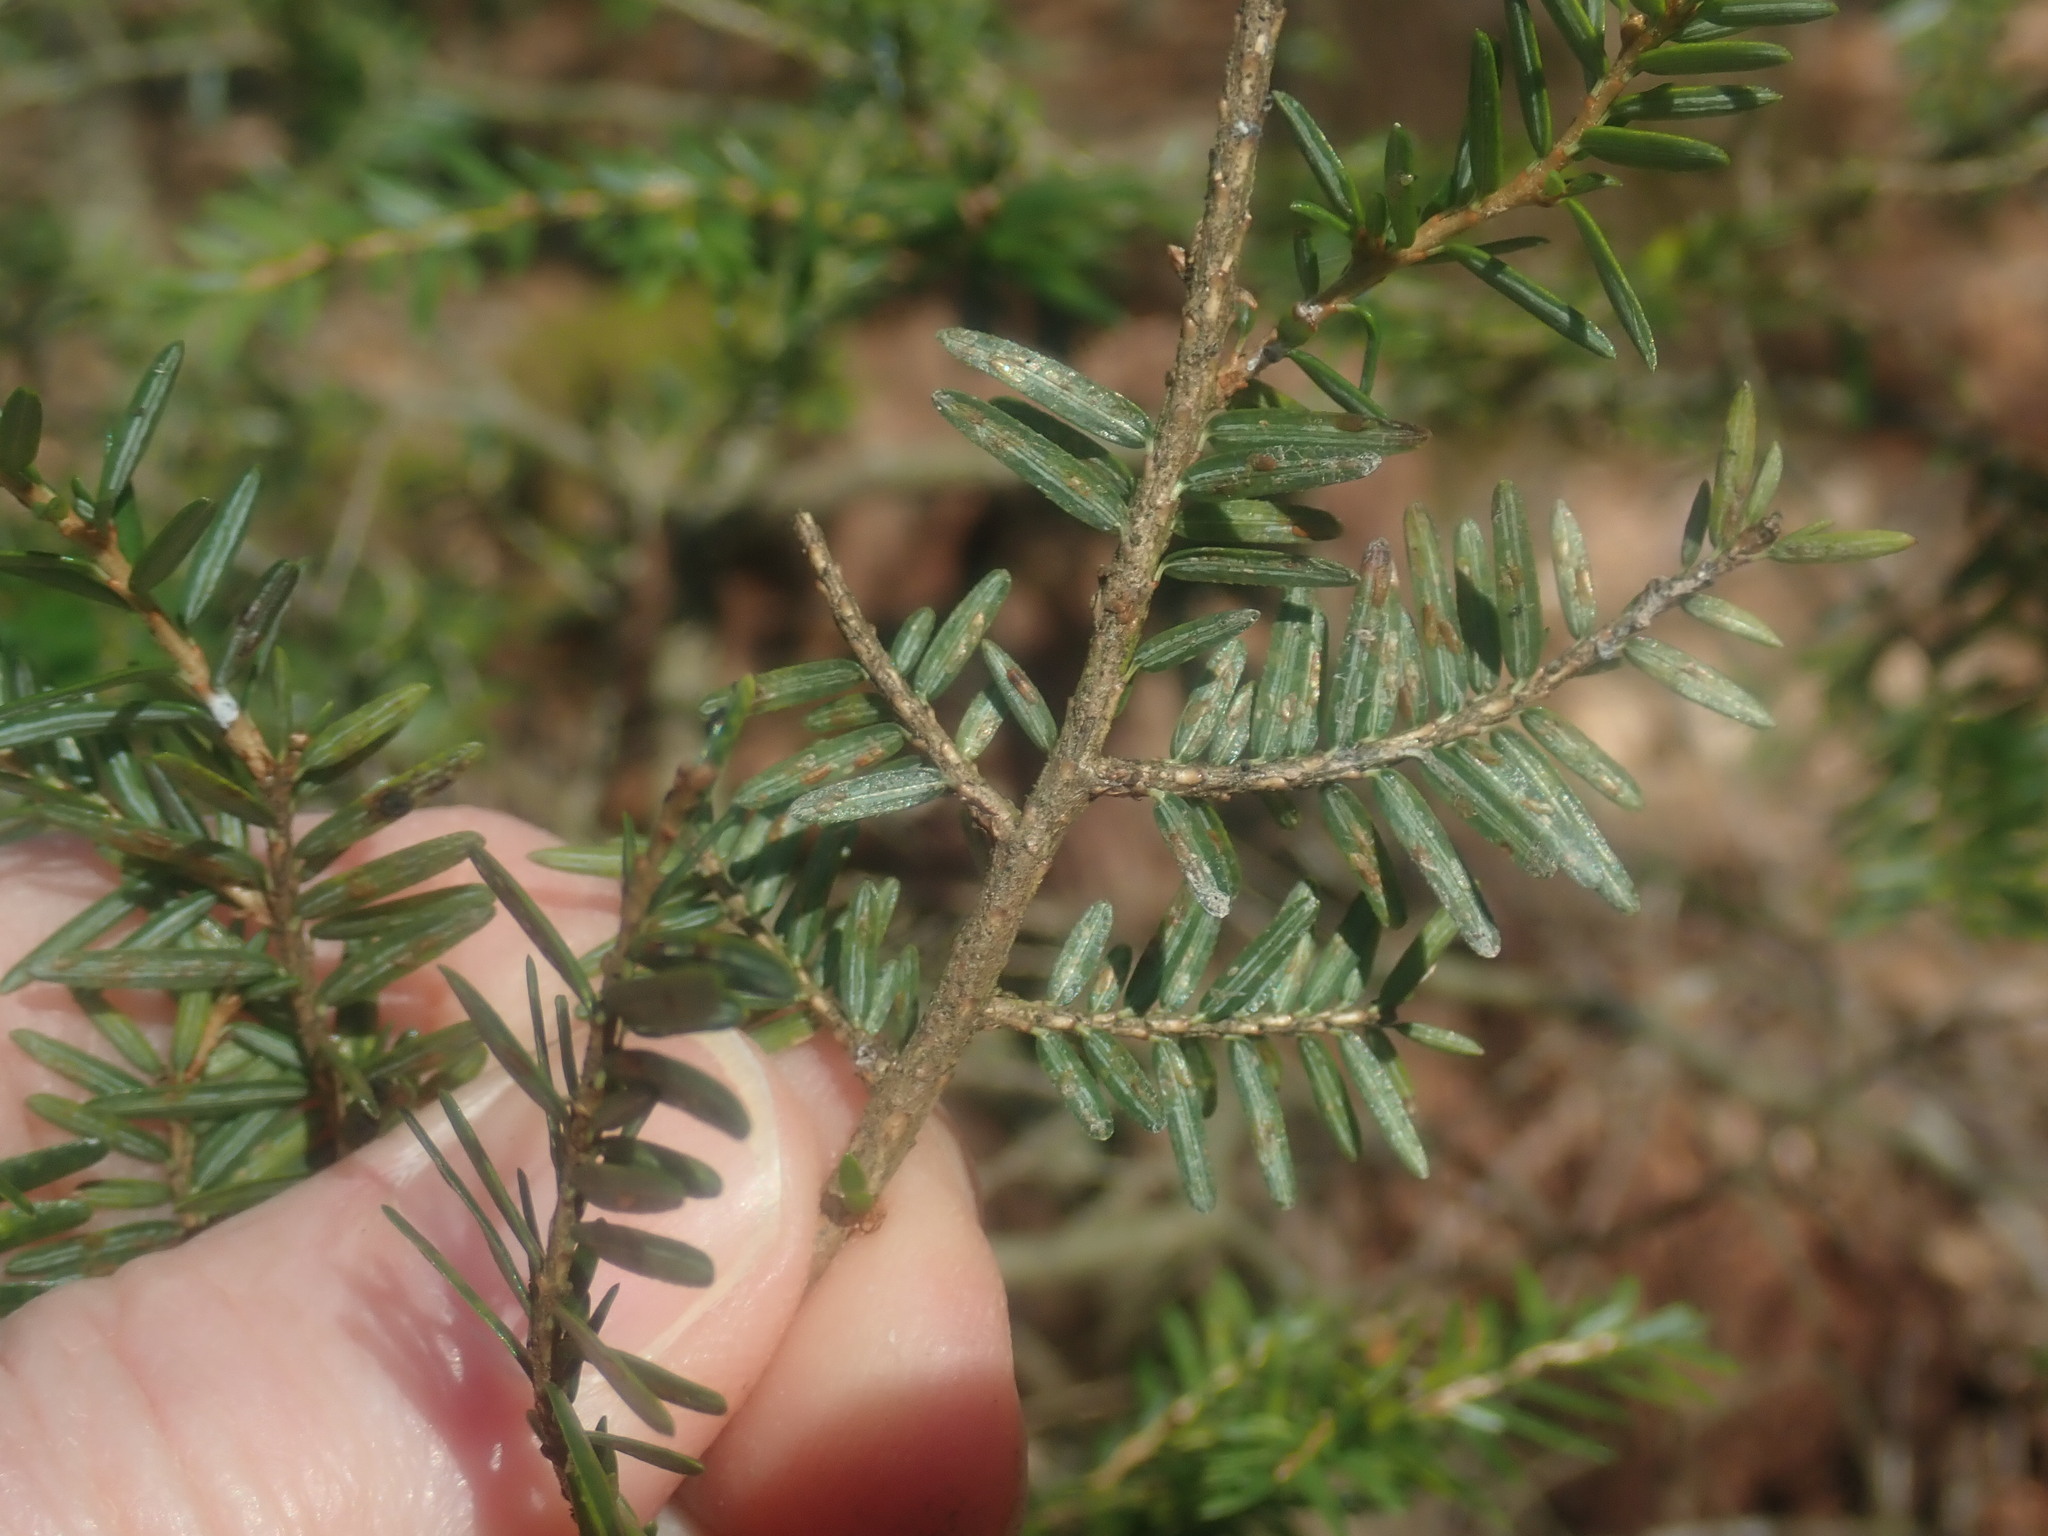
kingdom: Plantae
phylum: Tracheophyta
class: Pinopsida
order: Pinales
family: Pinaceae
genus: Tsuga
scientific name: Tsuga canadensis
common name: Eastern hemlock
